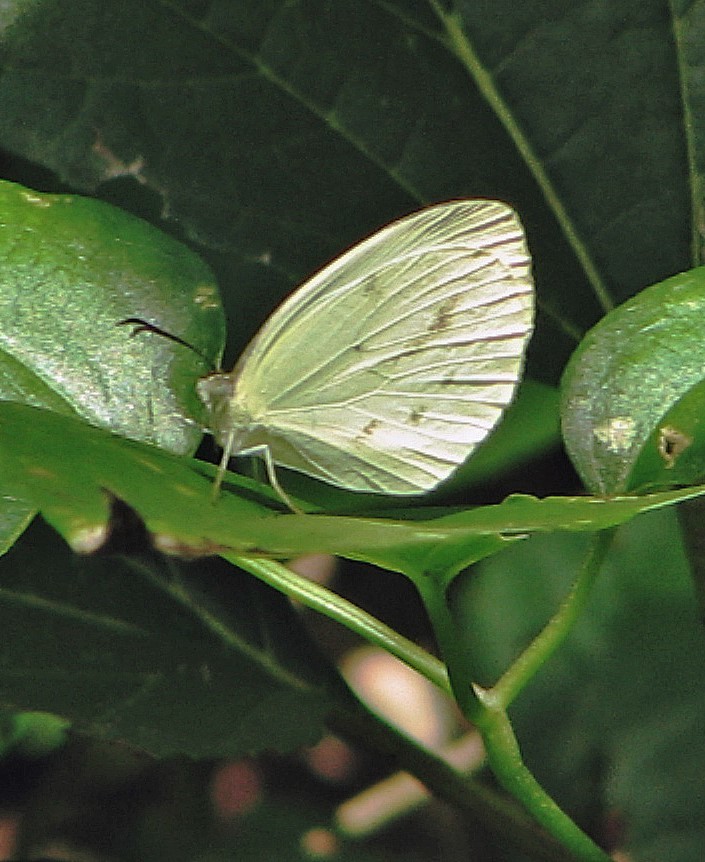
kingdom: Animalia
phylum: Arthropoda
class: Insecta
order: Lepidoptera
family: Pieridae
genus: Abaeis
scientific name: Abaeis albula
